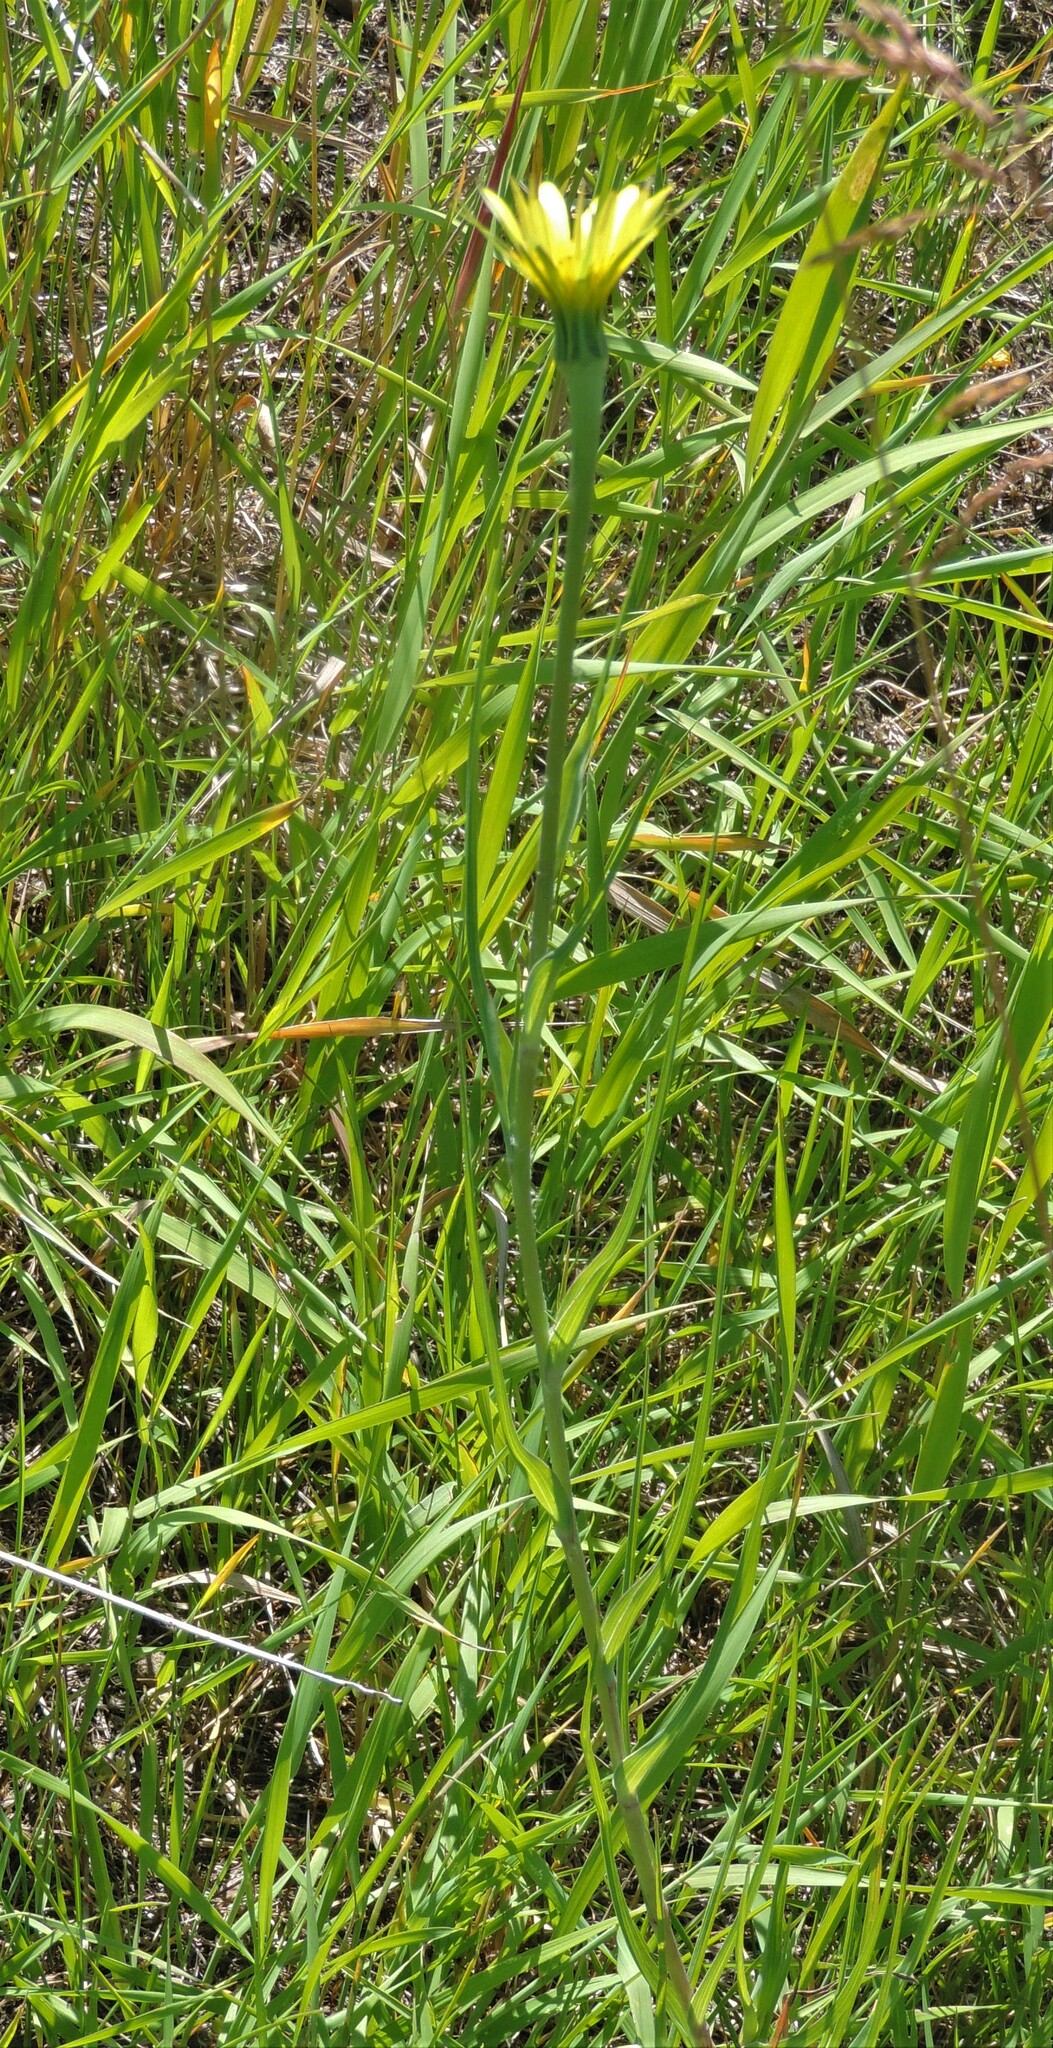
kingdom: Plantae
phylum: Tracheophyta
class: Magnoliopsida
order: Asterales
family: Asteraceae
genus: Tragopogon
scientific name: Tragopogon dubius
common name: Yellow salsify
